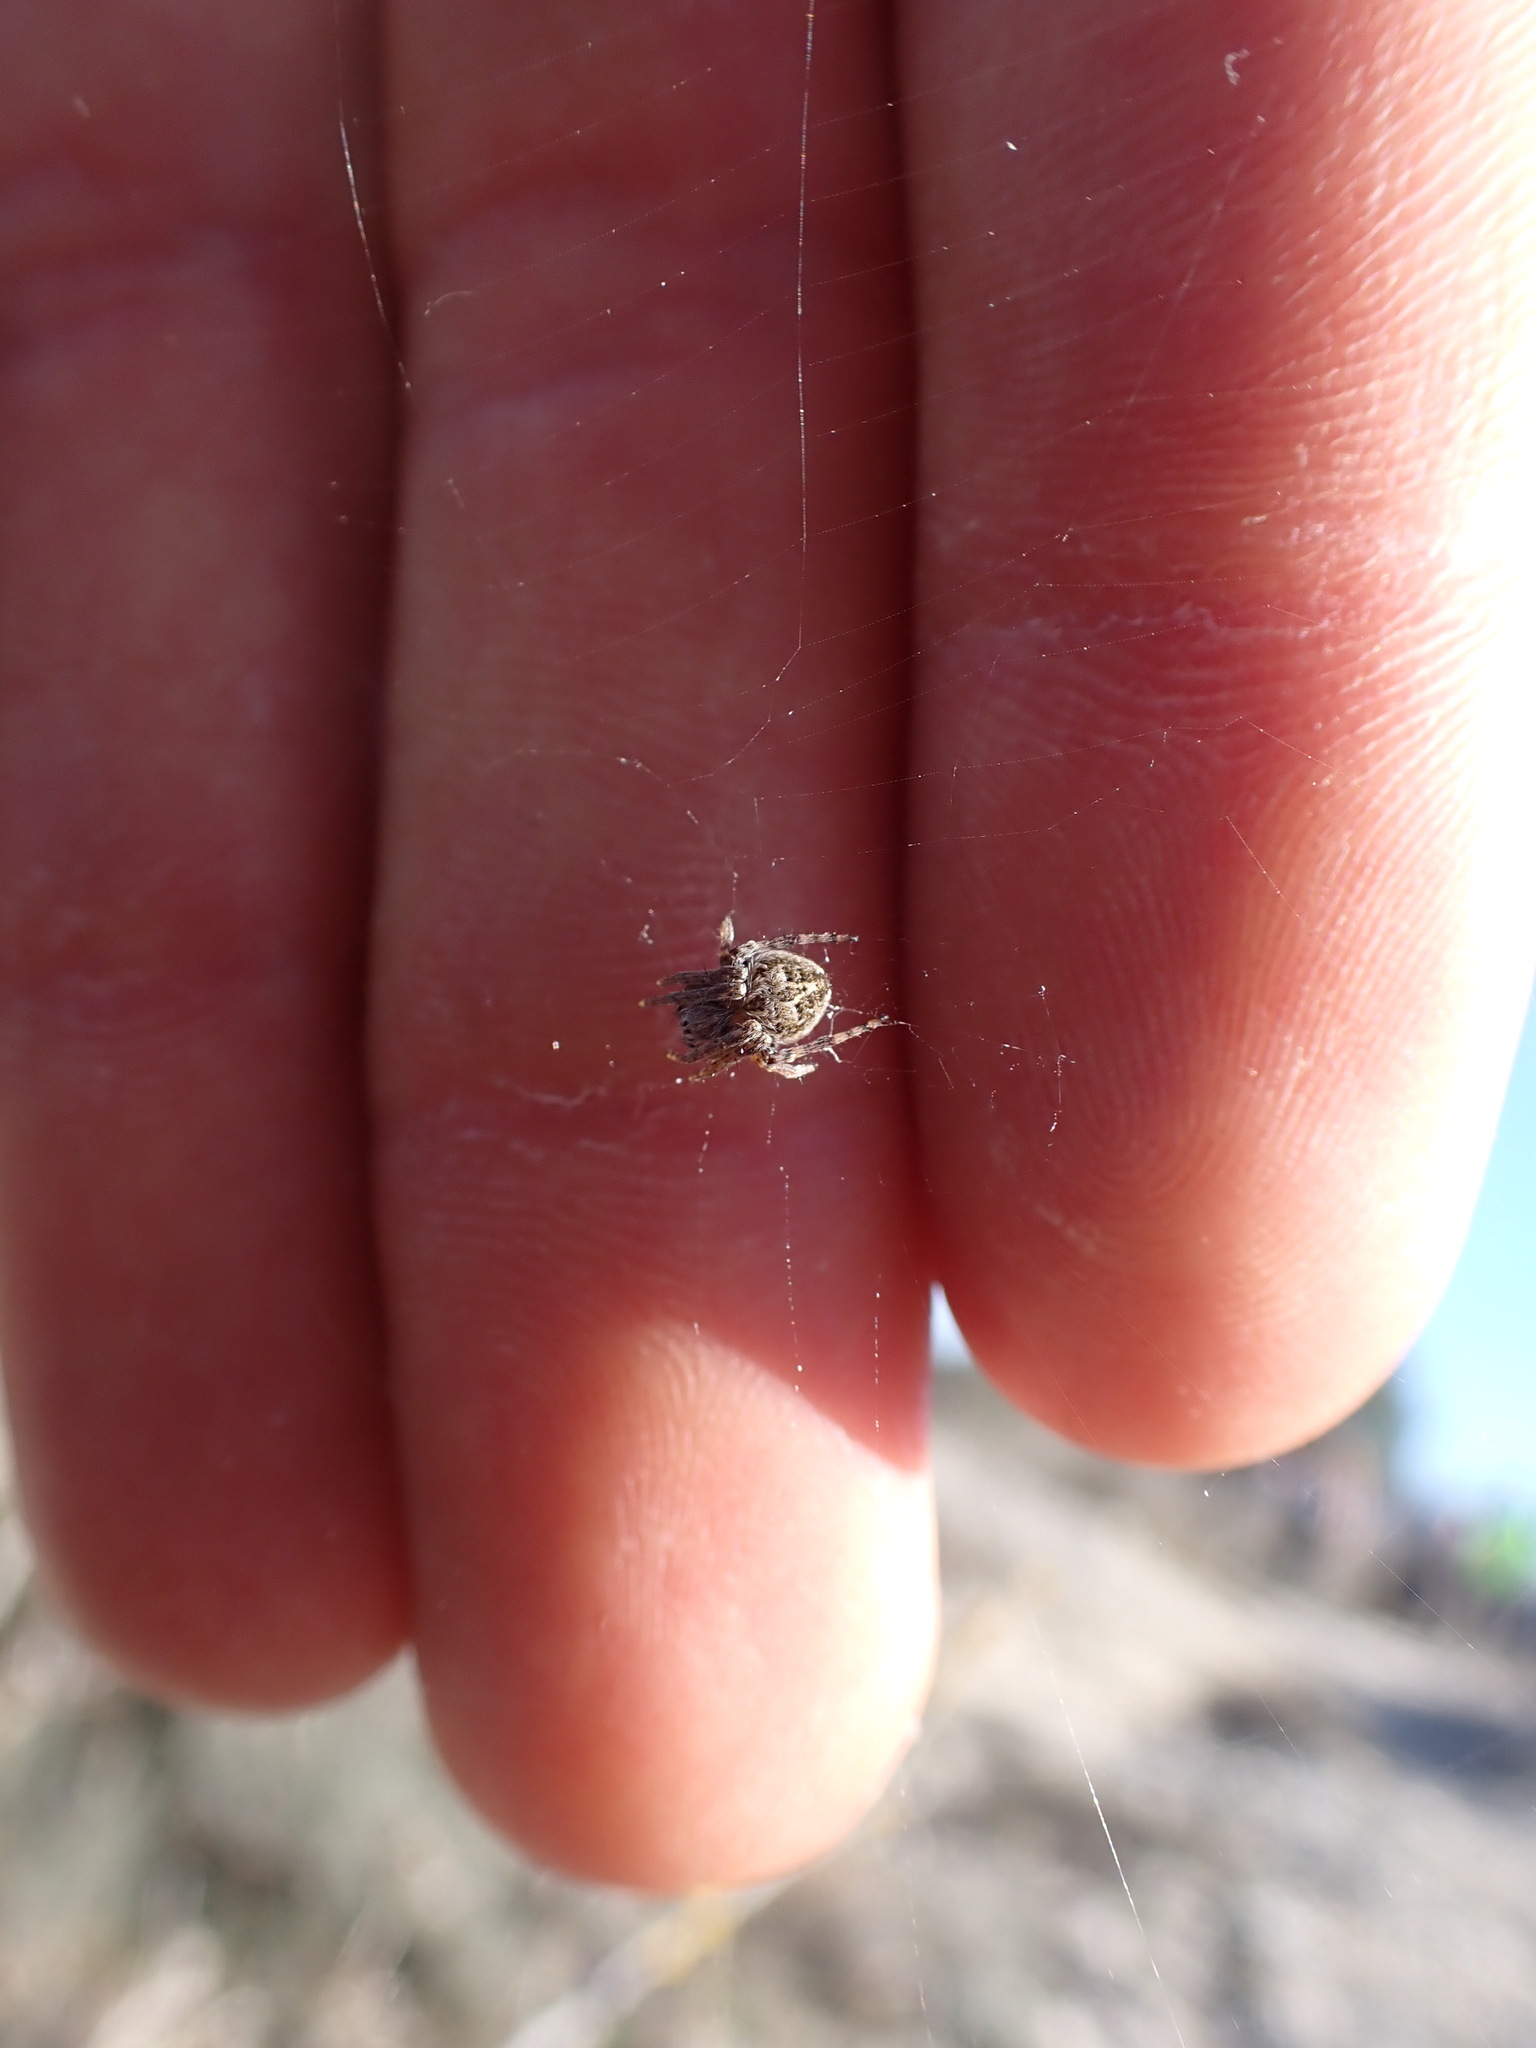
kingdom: Animalia
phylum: Arthropoda
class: Arachnida
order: Araneae
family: Araneidae
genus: Agalenatea
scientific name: Agalenatea redii
